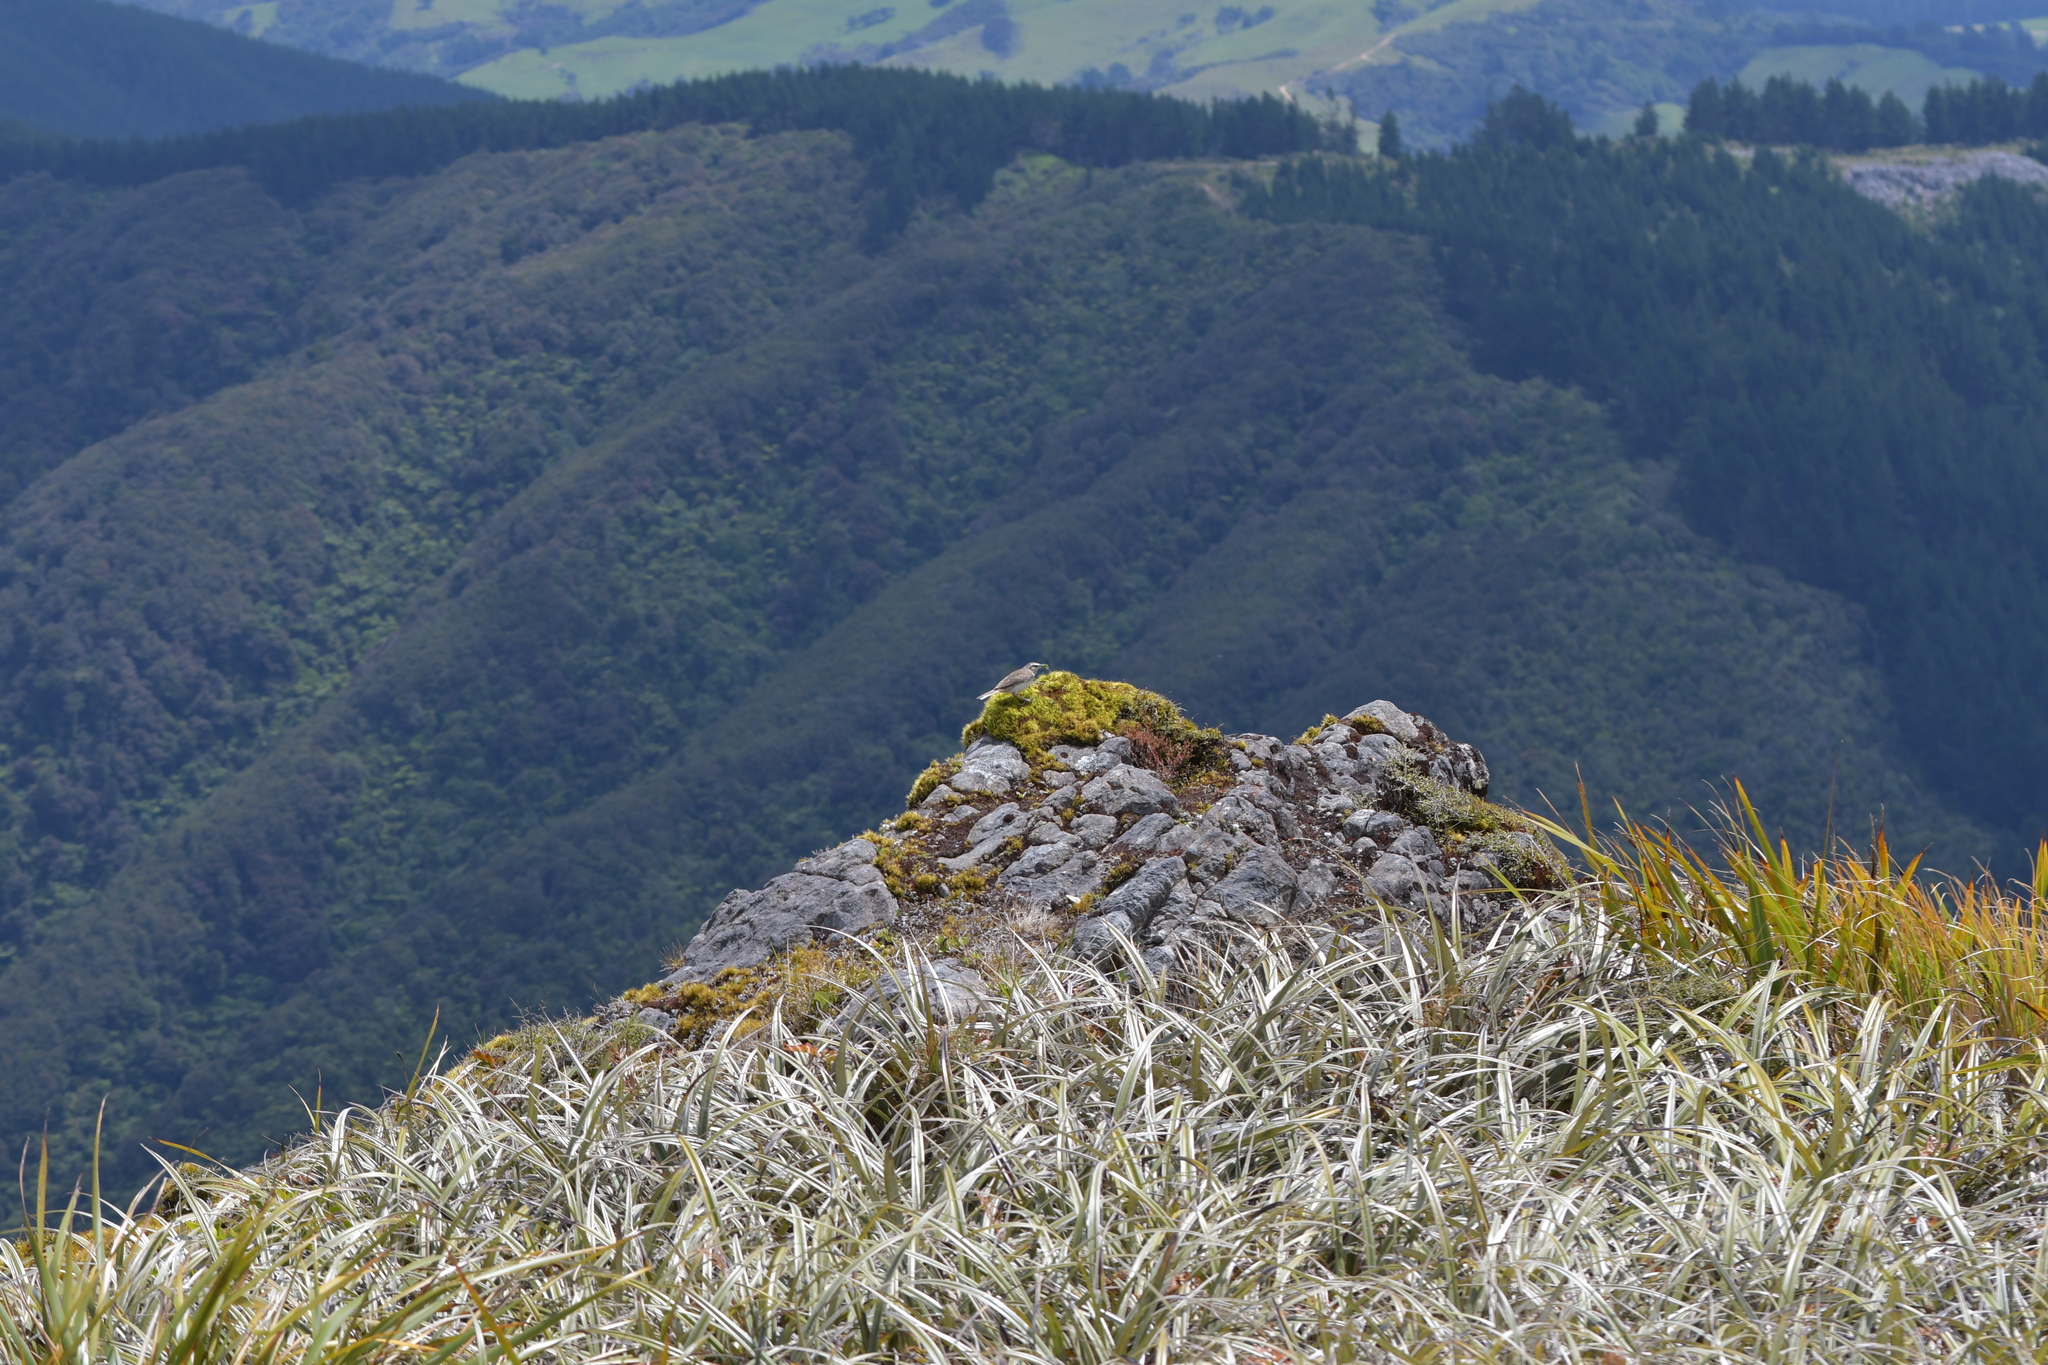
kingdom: Animalia
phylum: Chordata
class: Aves
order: Passeriformes
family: Motacillidae
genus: Anthus
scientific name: Anthus novaeseelandiae
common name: New zealand pipit
